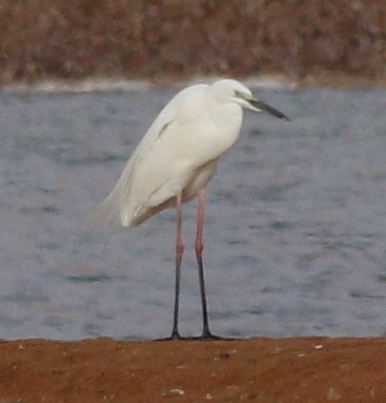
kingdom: Animalia
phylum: Chordata
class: Aves
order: Pelecaniformes
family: Ardeidae
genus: Ardea
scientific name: Ardea alba
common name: Great egret
